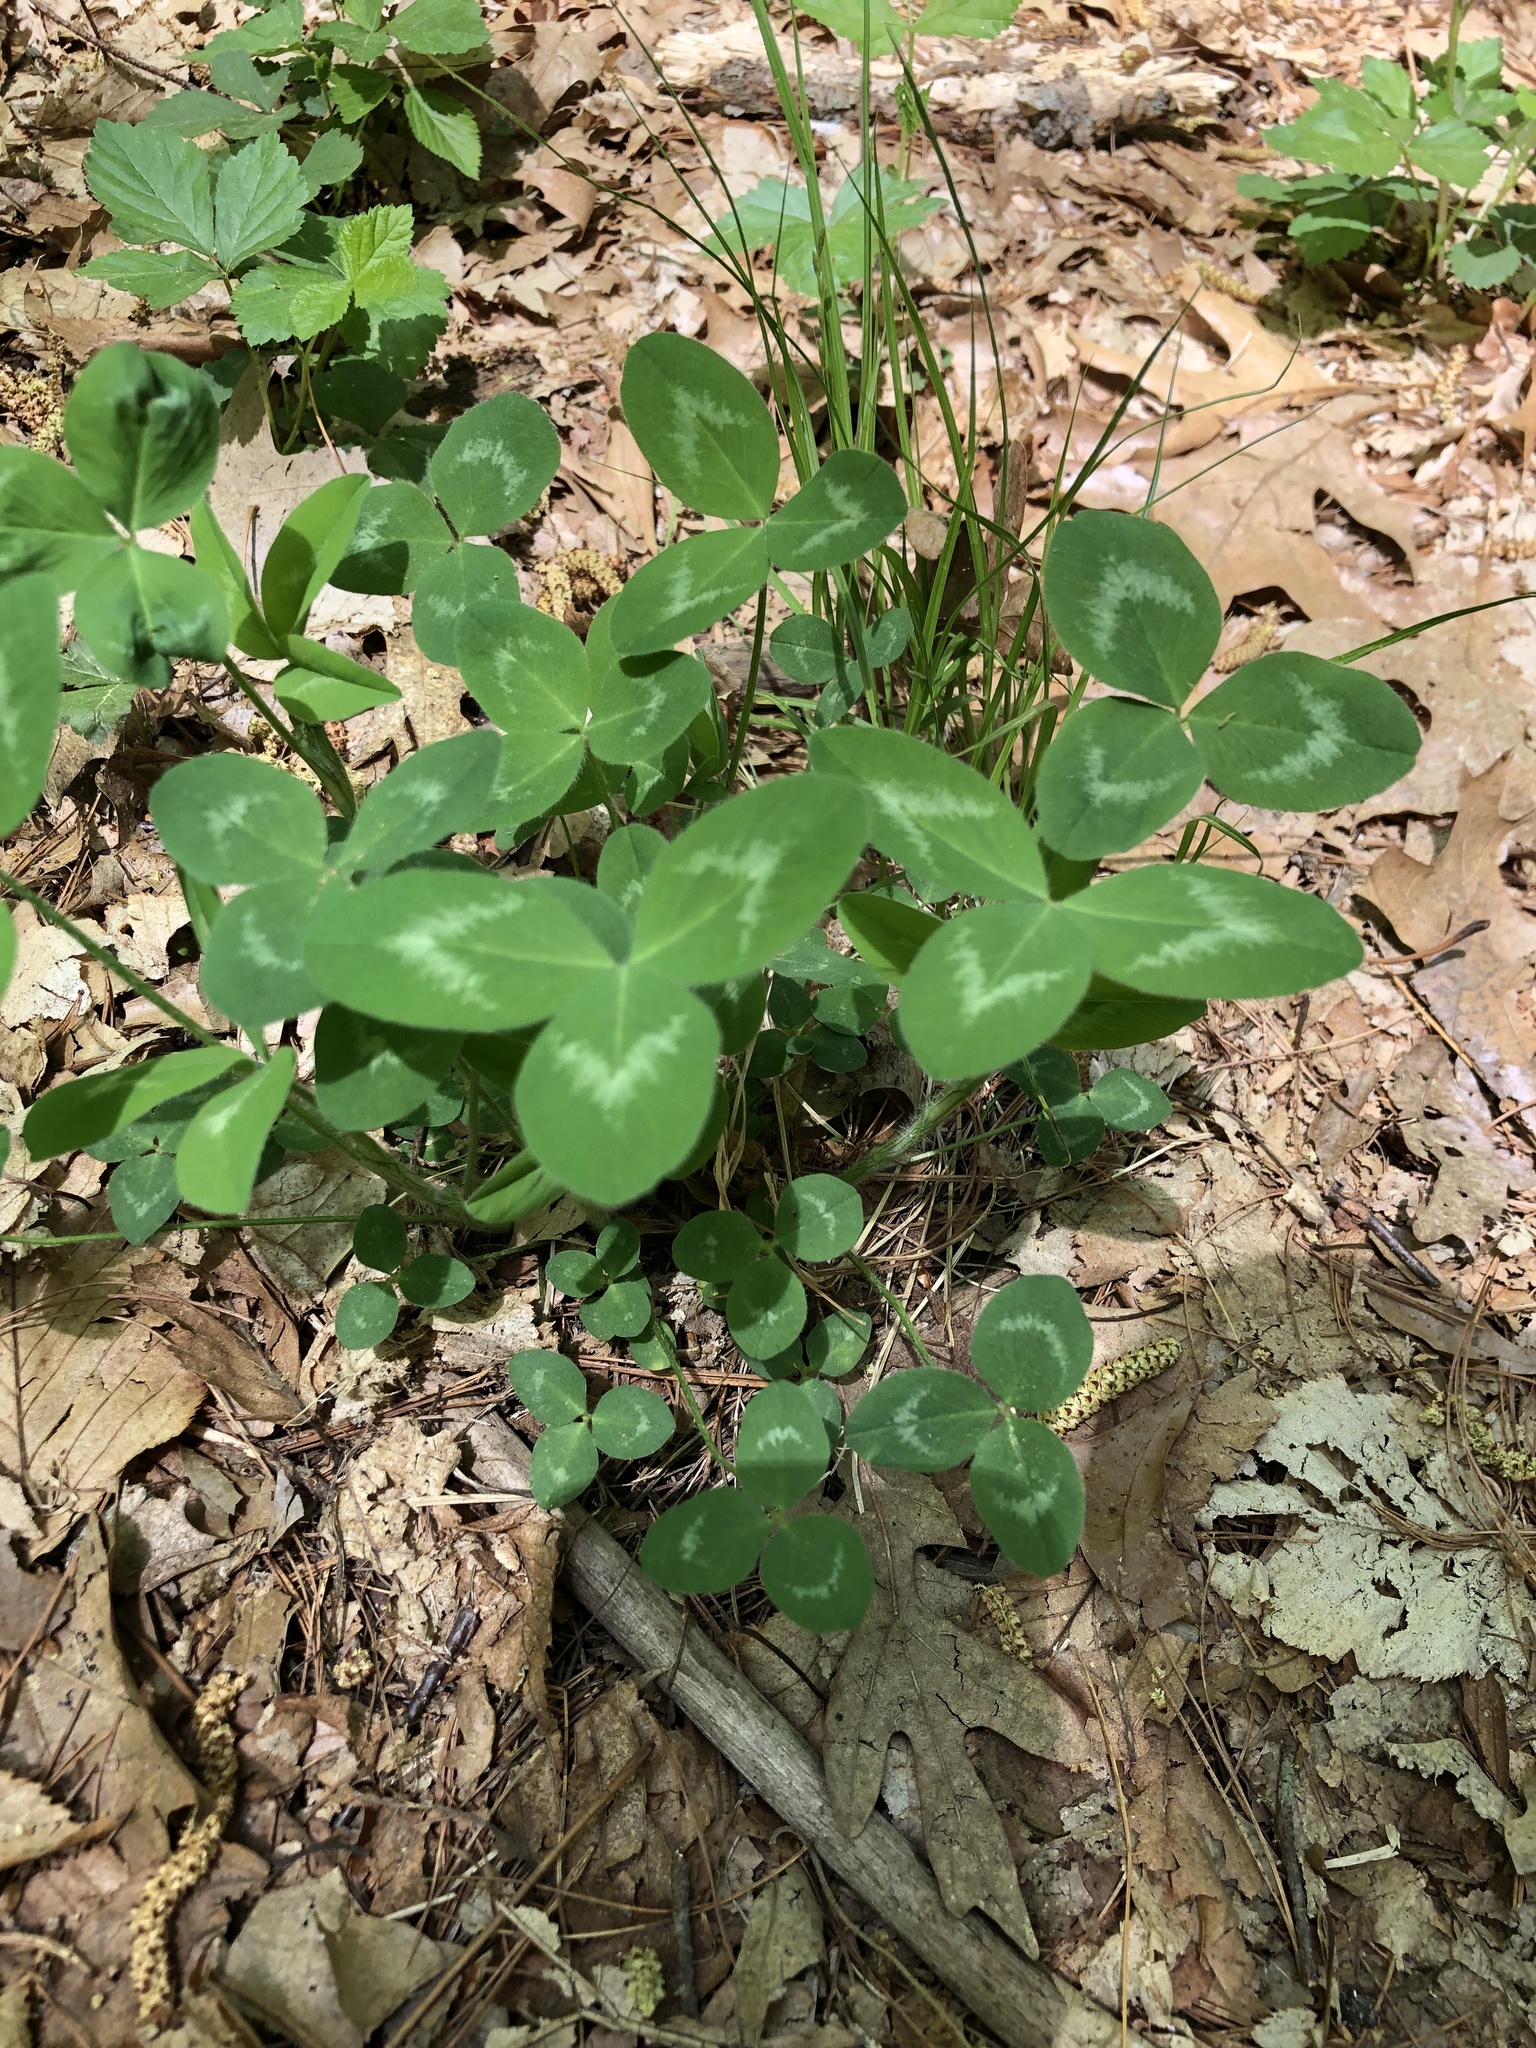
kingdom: Plantae
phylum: Tracheophyta
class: Magnoliopsida
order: Fabales
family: Fabaceae
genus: Trifolium
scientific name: Trifolium pratense
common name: Red clover
